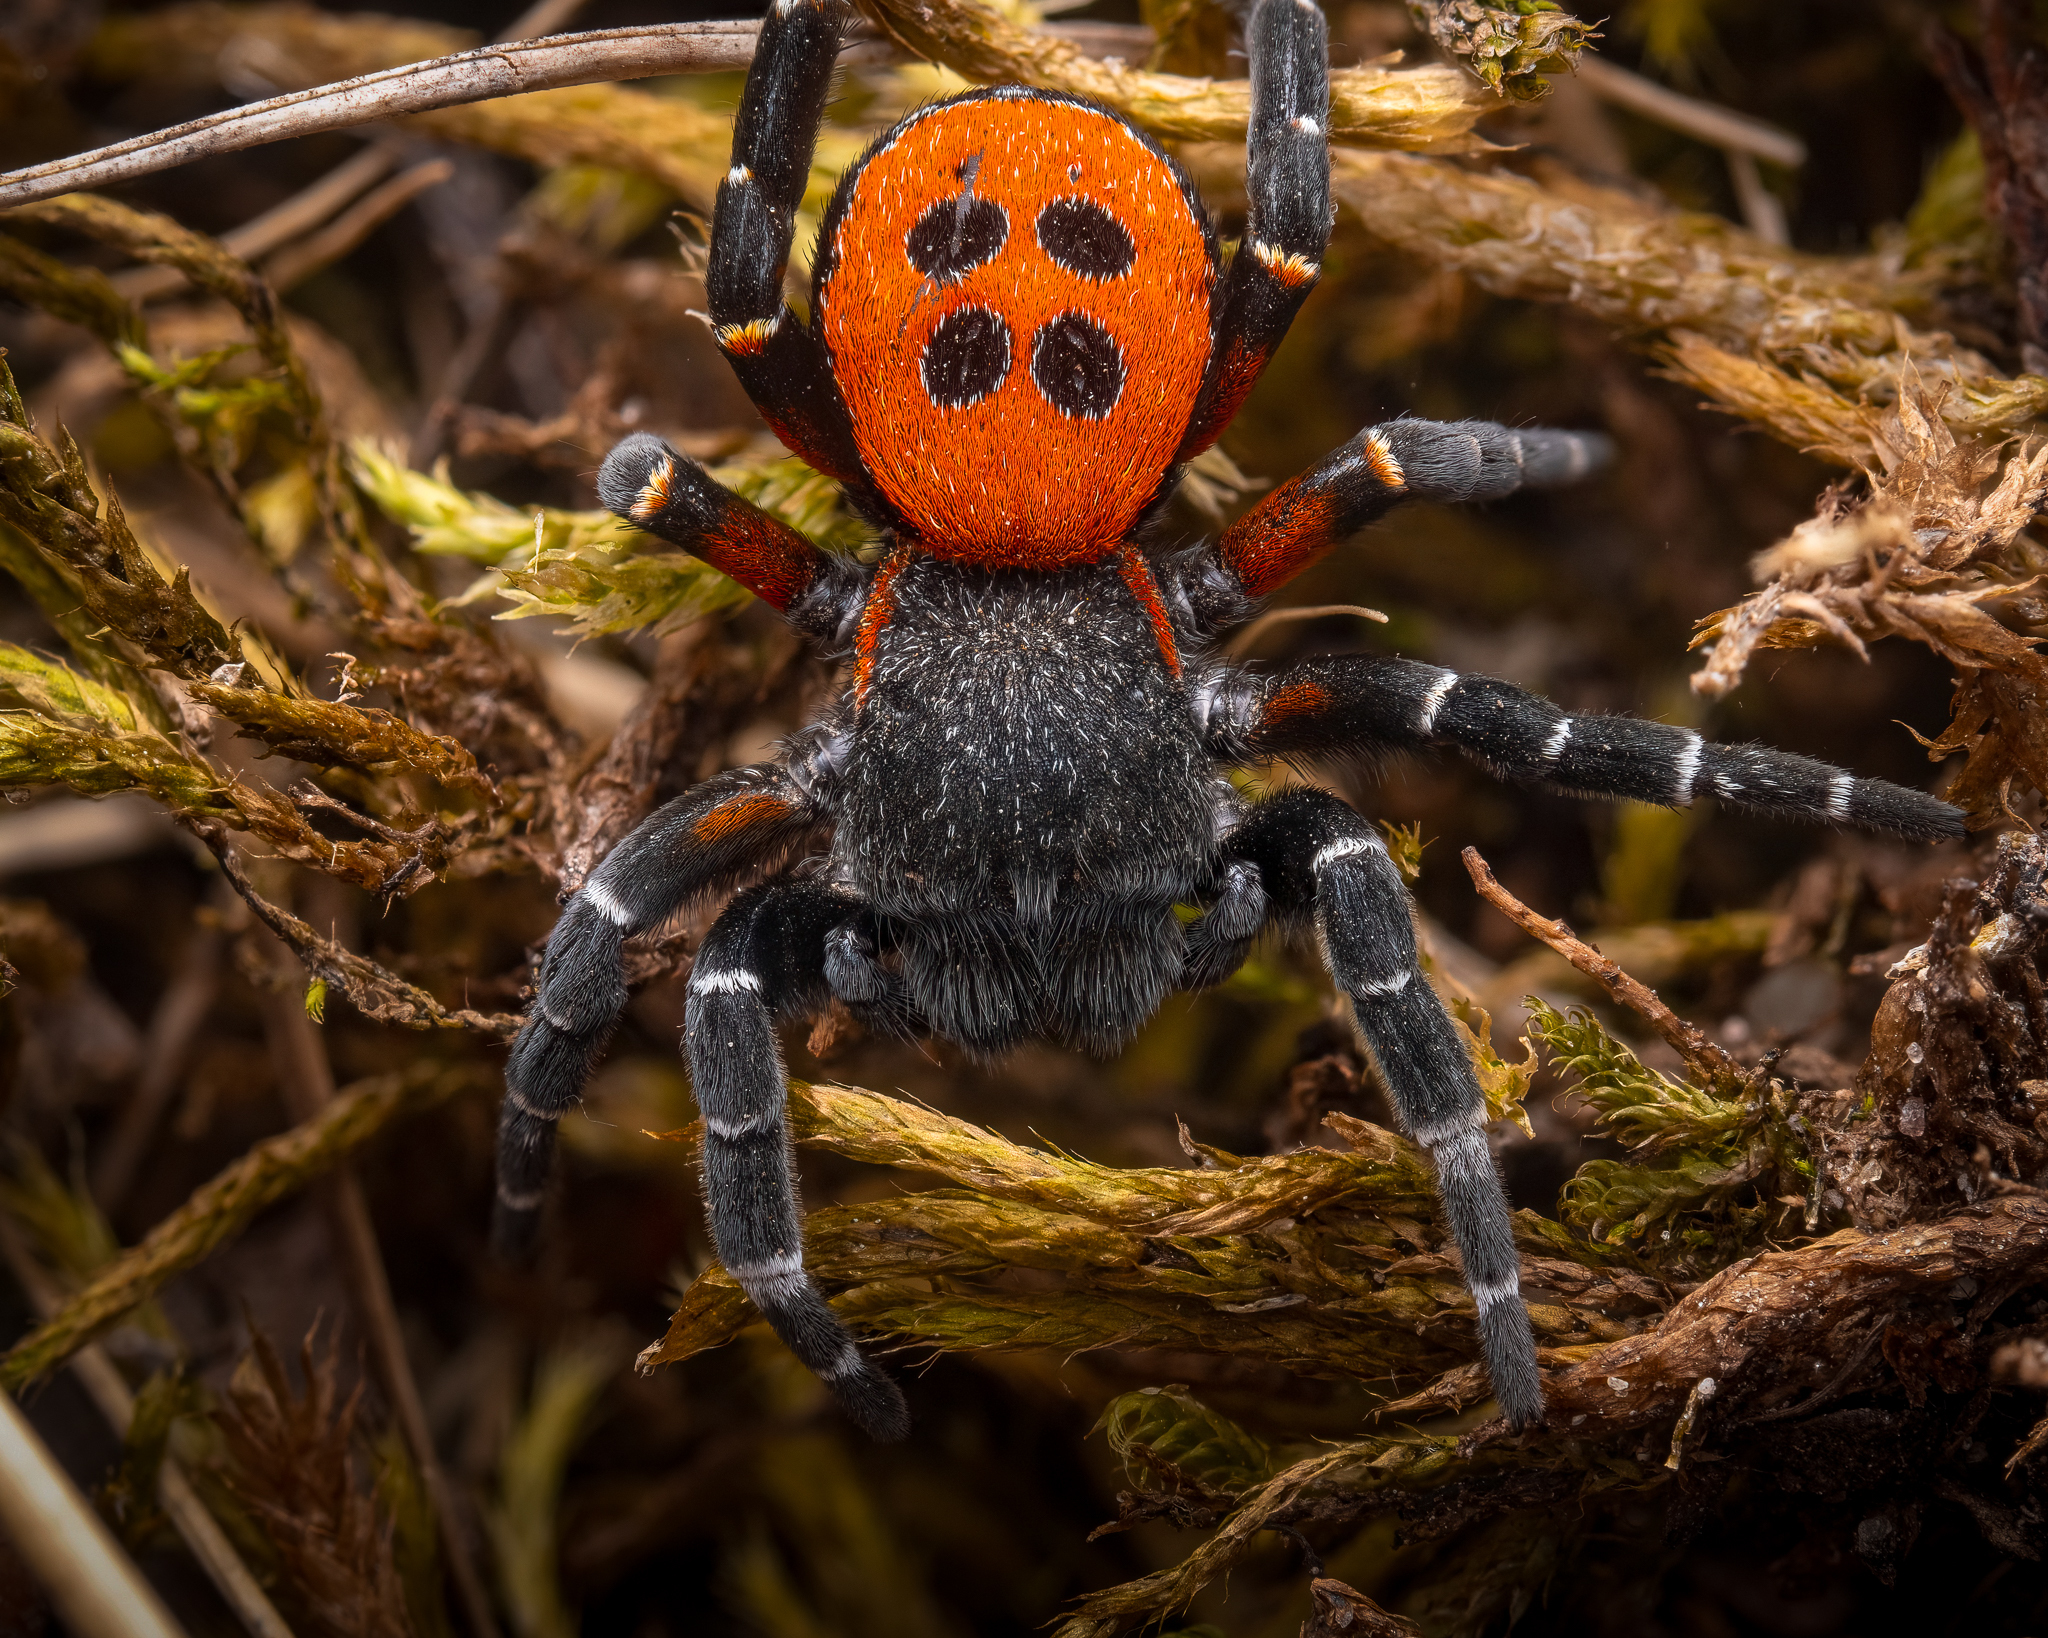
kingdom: Animalia
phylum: Arthropoda
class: Arachnida
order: Araneae
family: Eresidae
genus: Eresus
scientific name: Eresus kollari
